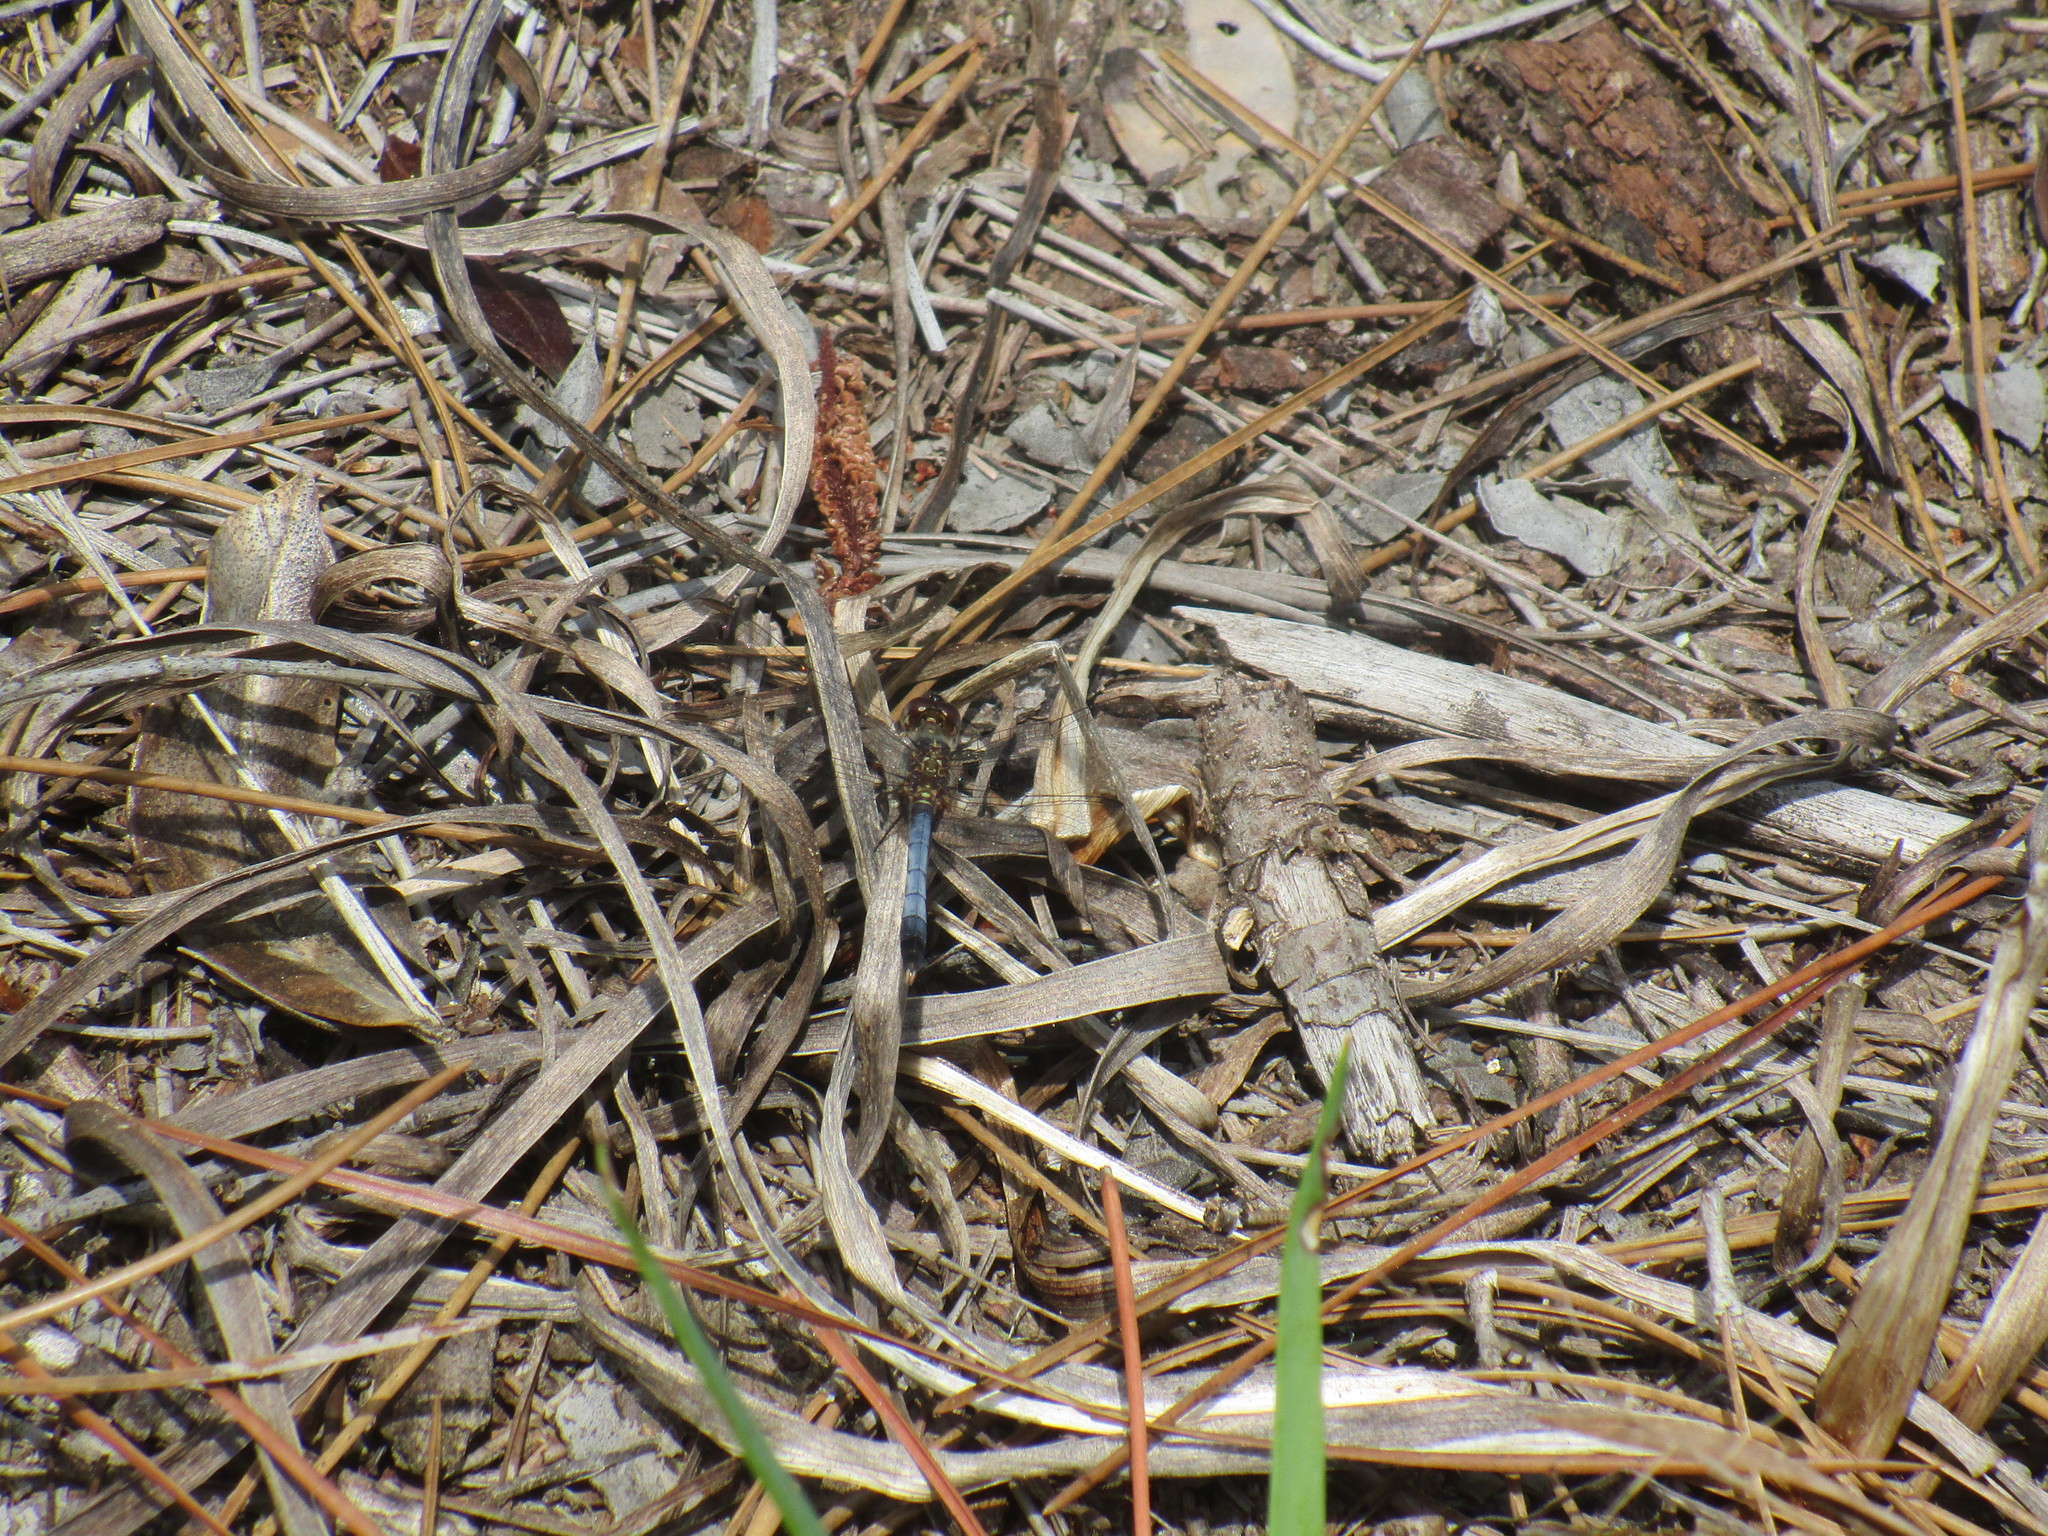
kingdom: Animalia
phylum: Arthropoda
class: Insecta
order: Odonata
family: Libellulidae
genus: Erythrodiplax
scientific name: Erythrodiplax minuscula
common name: Little blue dragonlet
